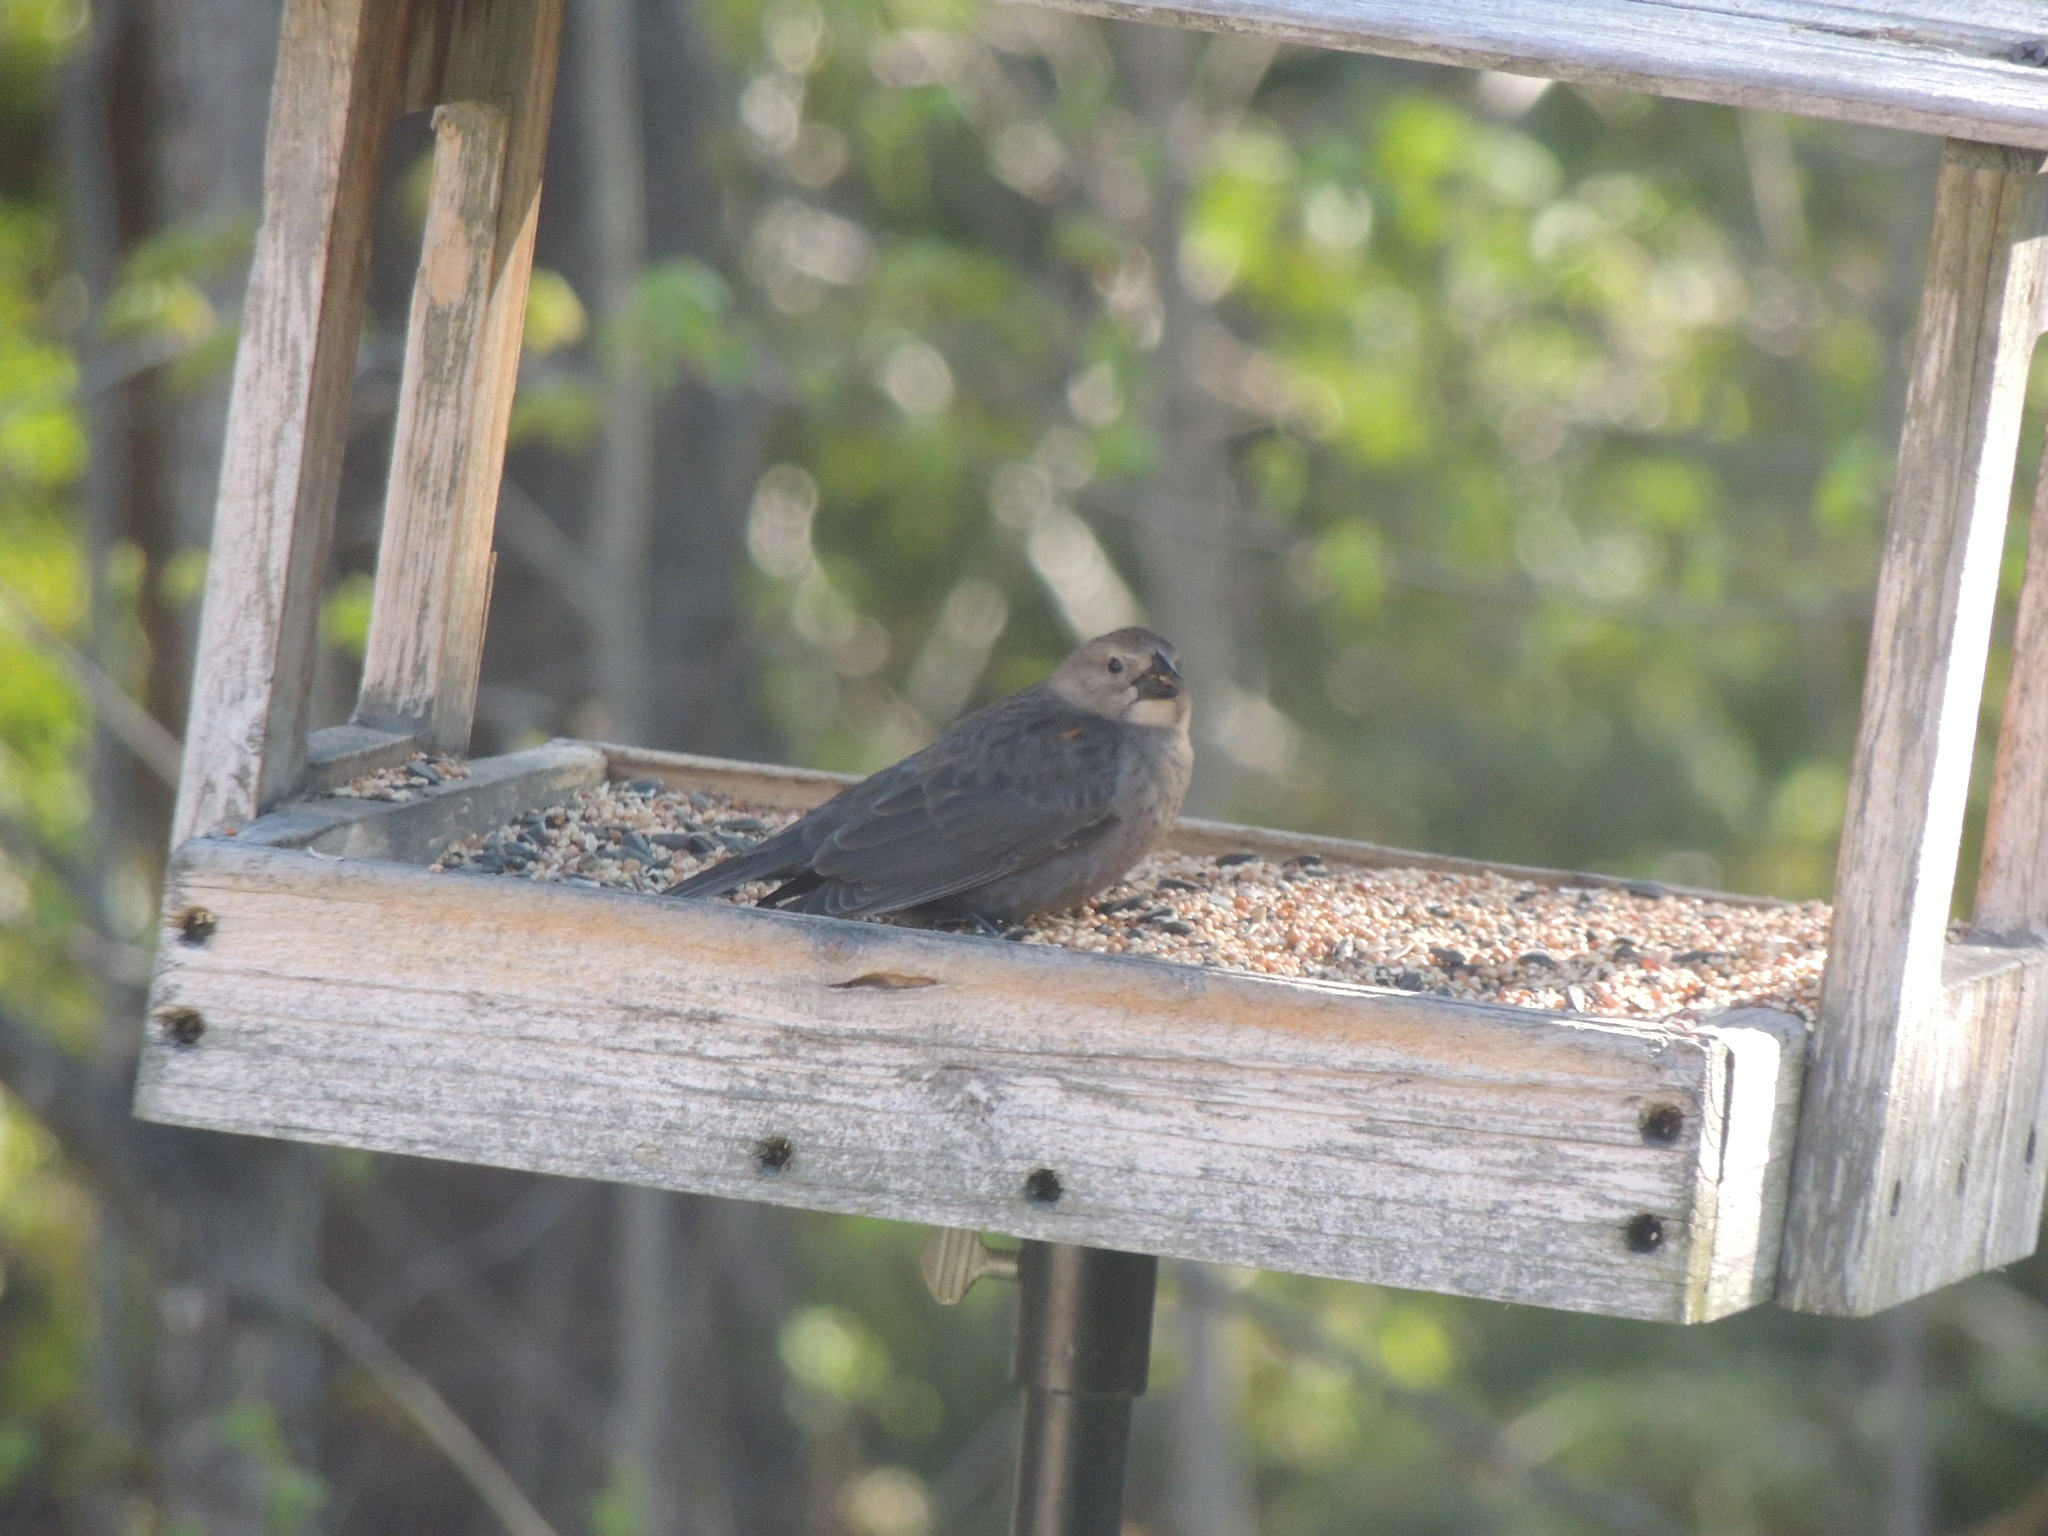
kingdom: Animalia
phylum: Chordata
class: Aves
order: Passeriformes
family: Icteridae
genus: Molothrus
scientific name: Molothrus ater
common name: Brown-headed cowbird
